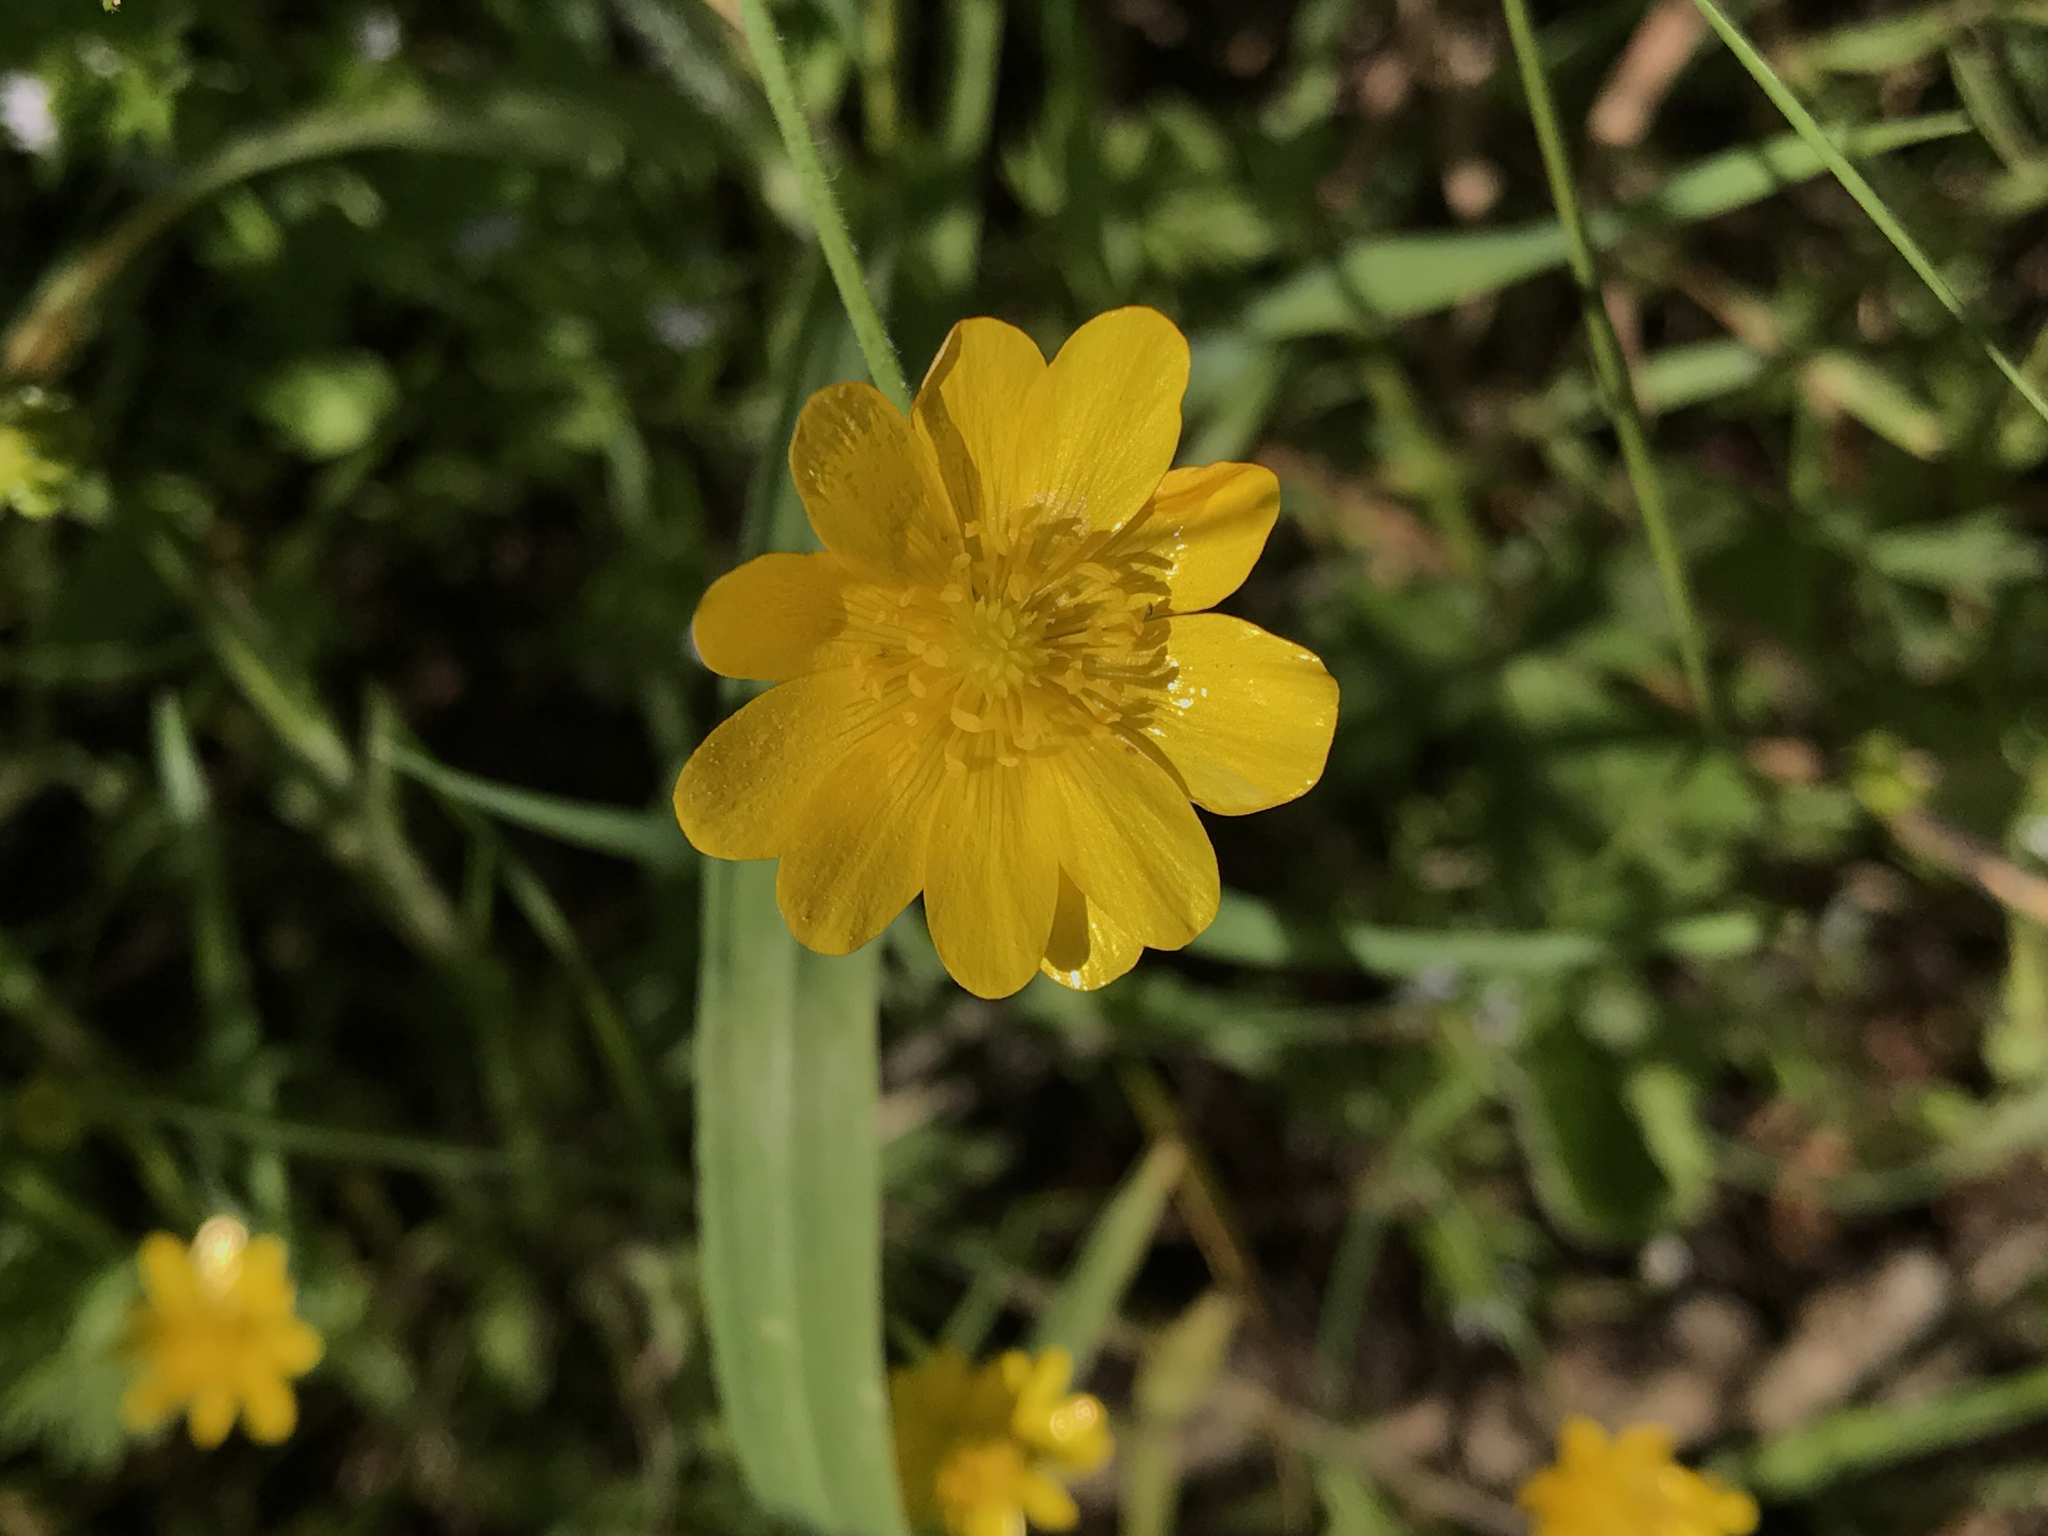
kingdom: Plantae
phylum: Tracheophyta
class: Magnoliopsida
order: Ranunculales
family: Ranunculaceae
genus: Ranunculus
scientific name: Ranunculus californicus
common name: California buttercup
